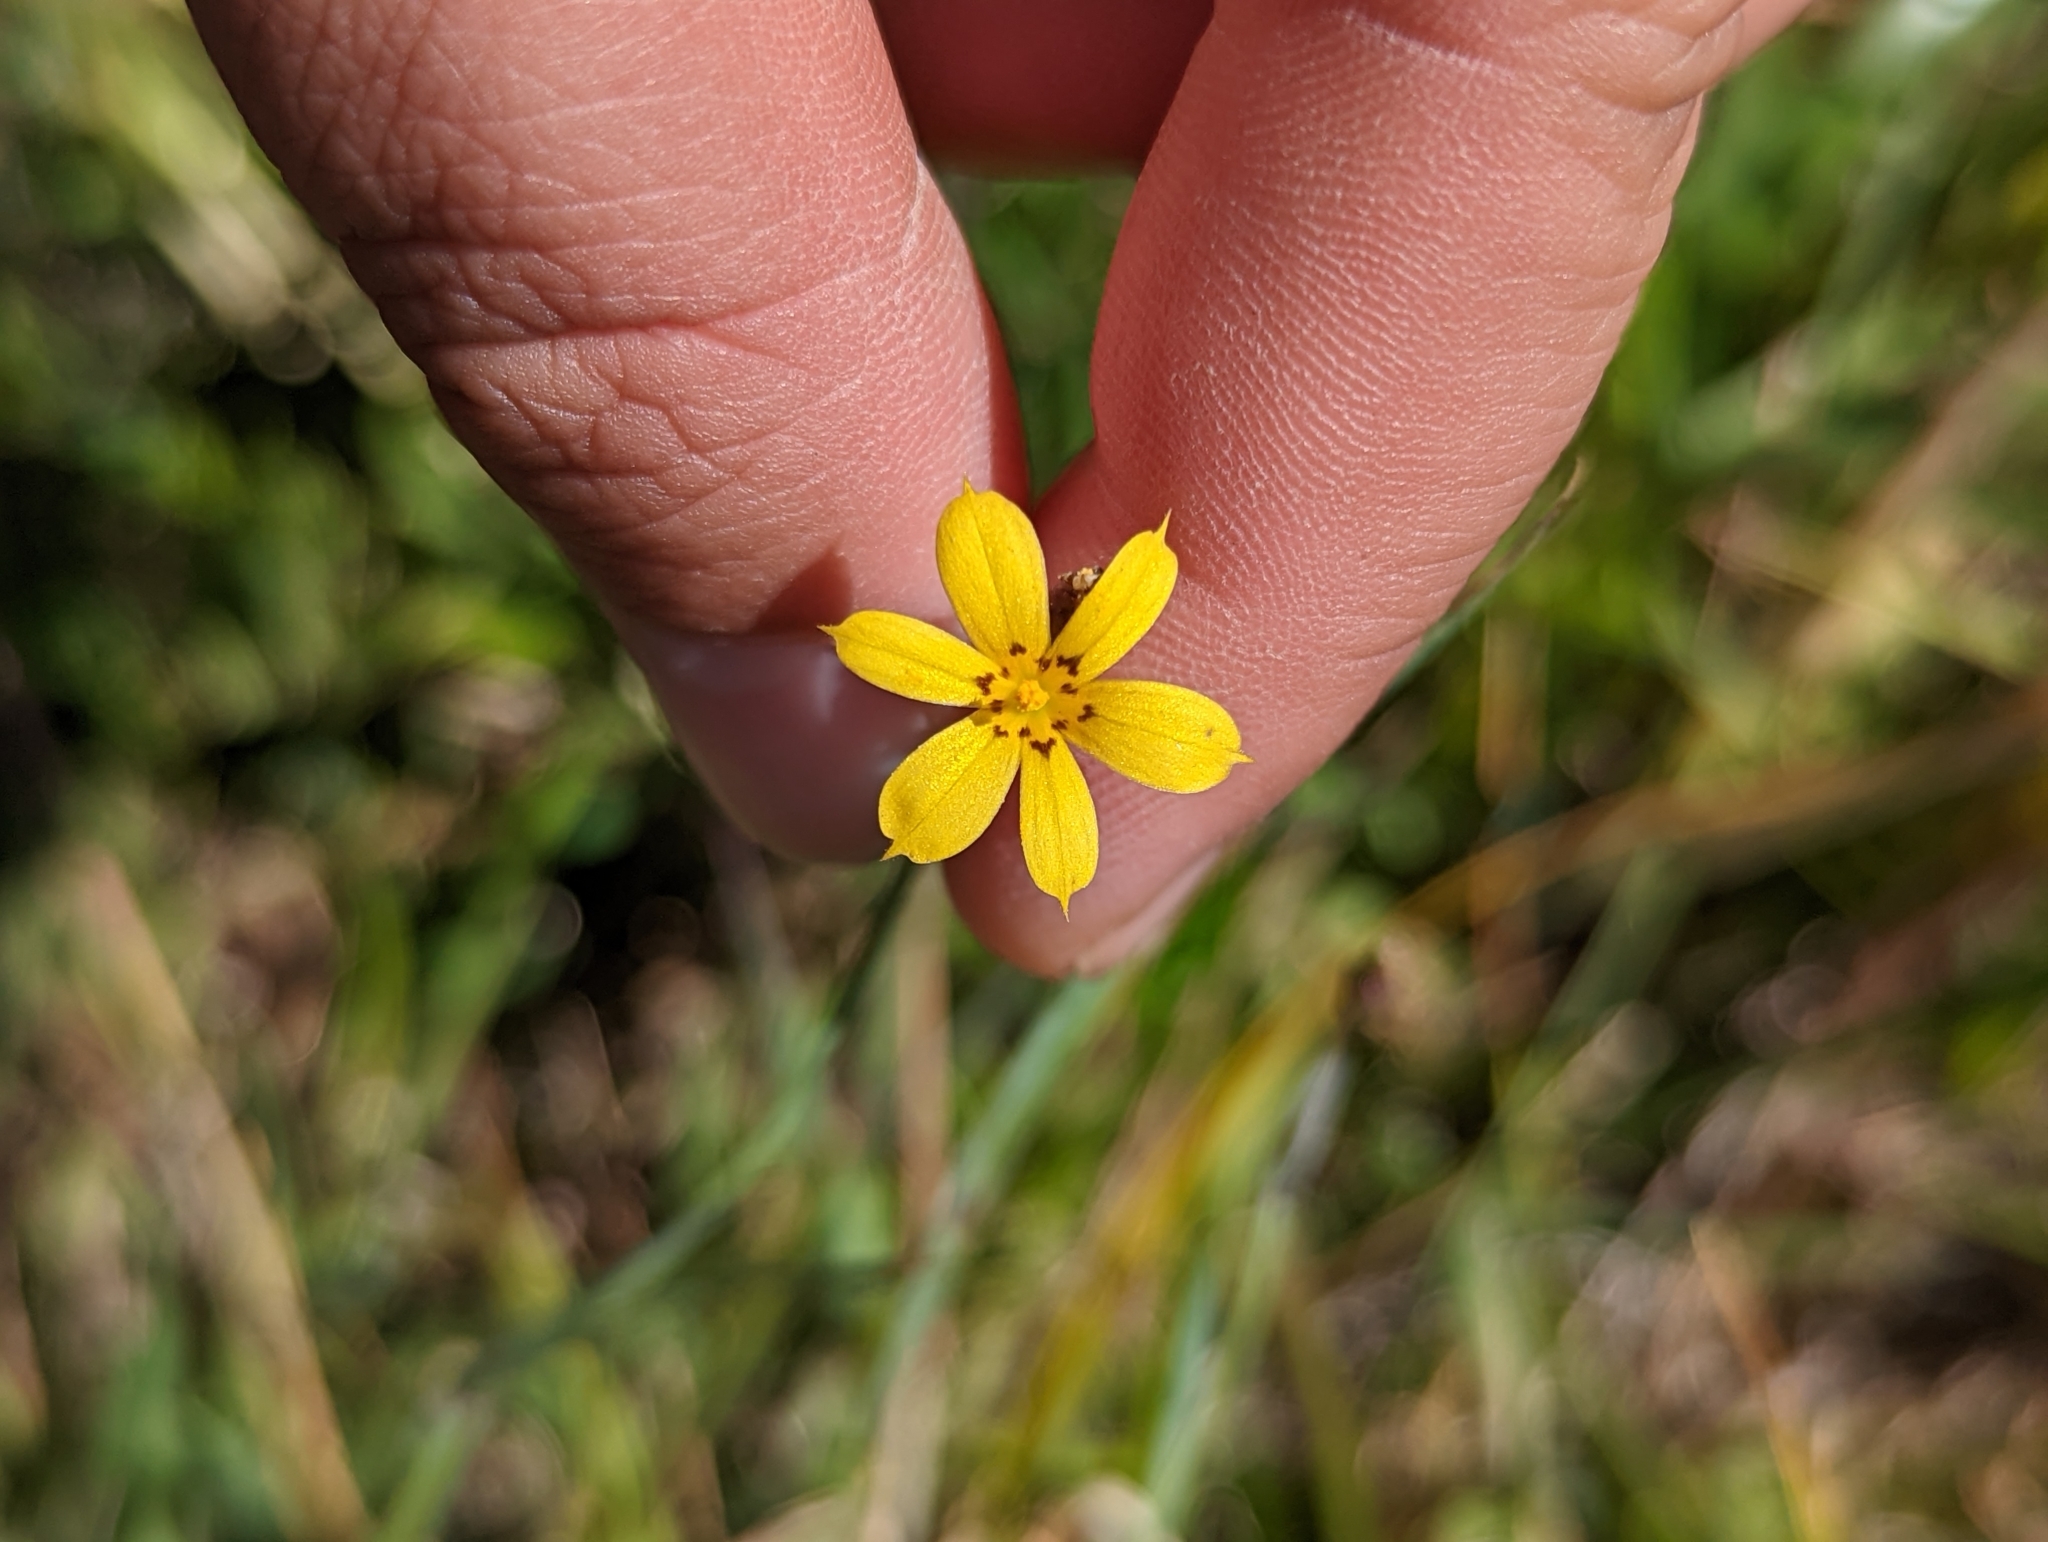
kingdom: Plantae
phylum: Tracheophyta
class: Liliopsida
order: Asparagales
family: Iridaceae
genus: Sisyrinchium
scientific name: Sisyrinchium patagonicum
